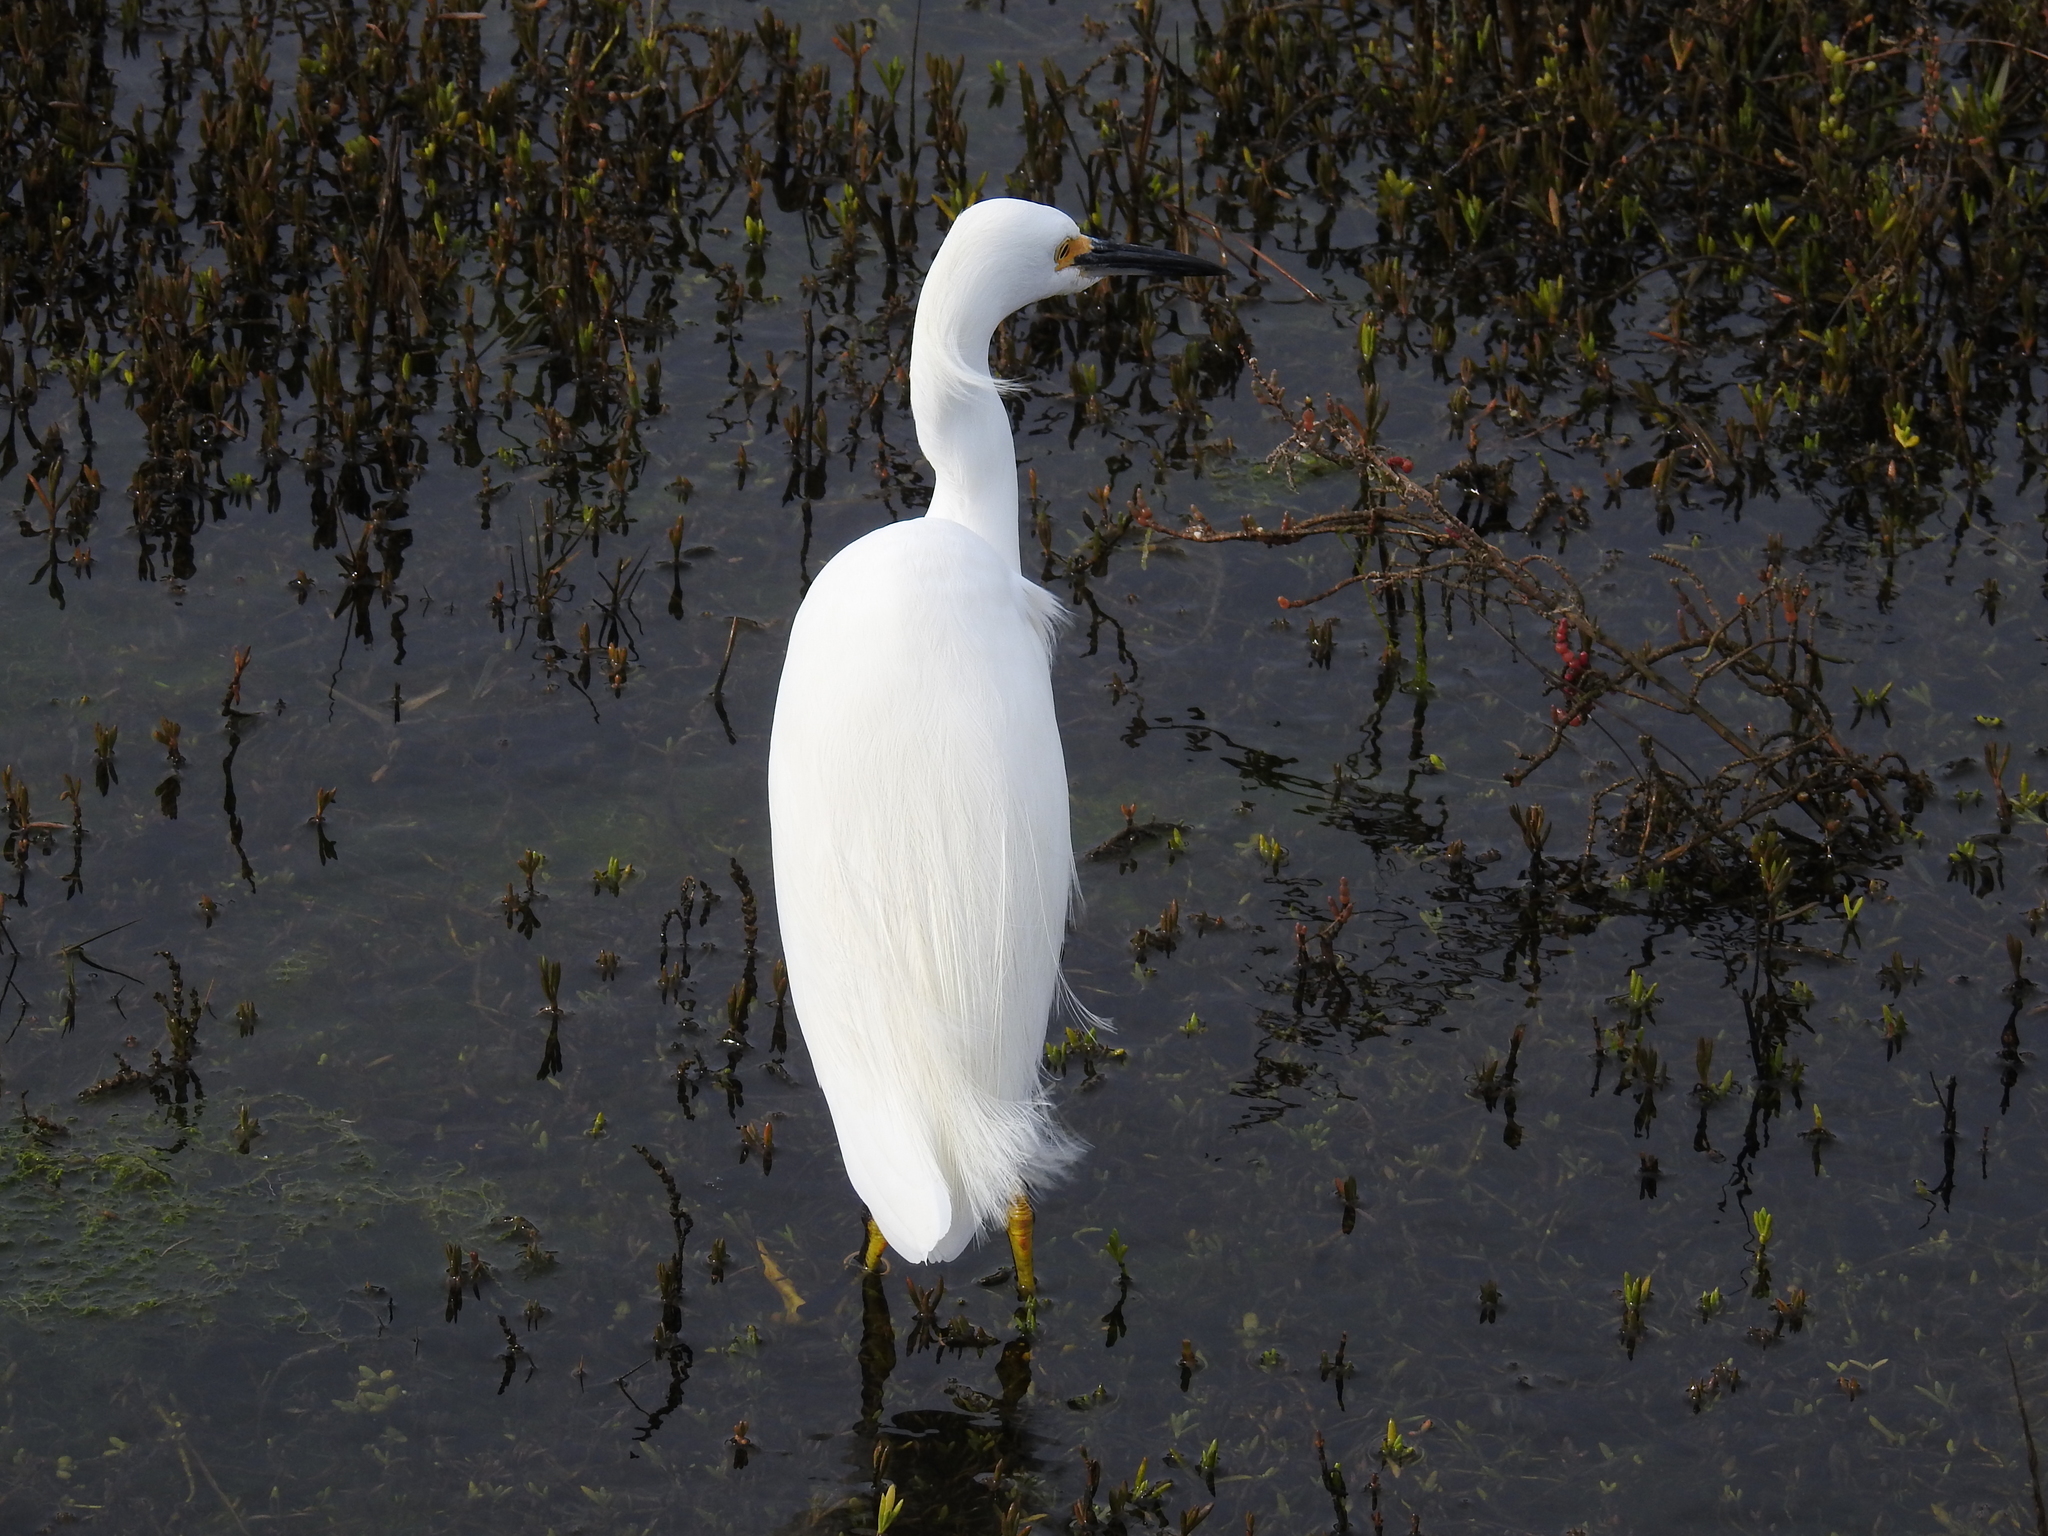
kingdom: Animalia
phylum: Chordata
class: Aves
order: Pelecaniformes
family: Ardeidae
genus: Egretta
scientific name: Egretta thula
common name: Snowy egret
